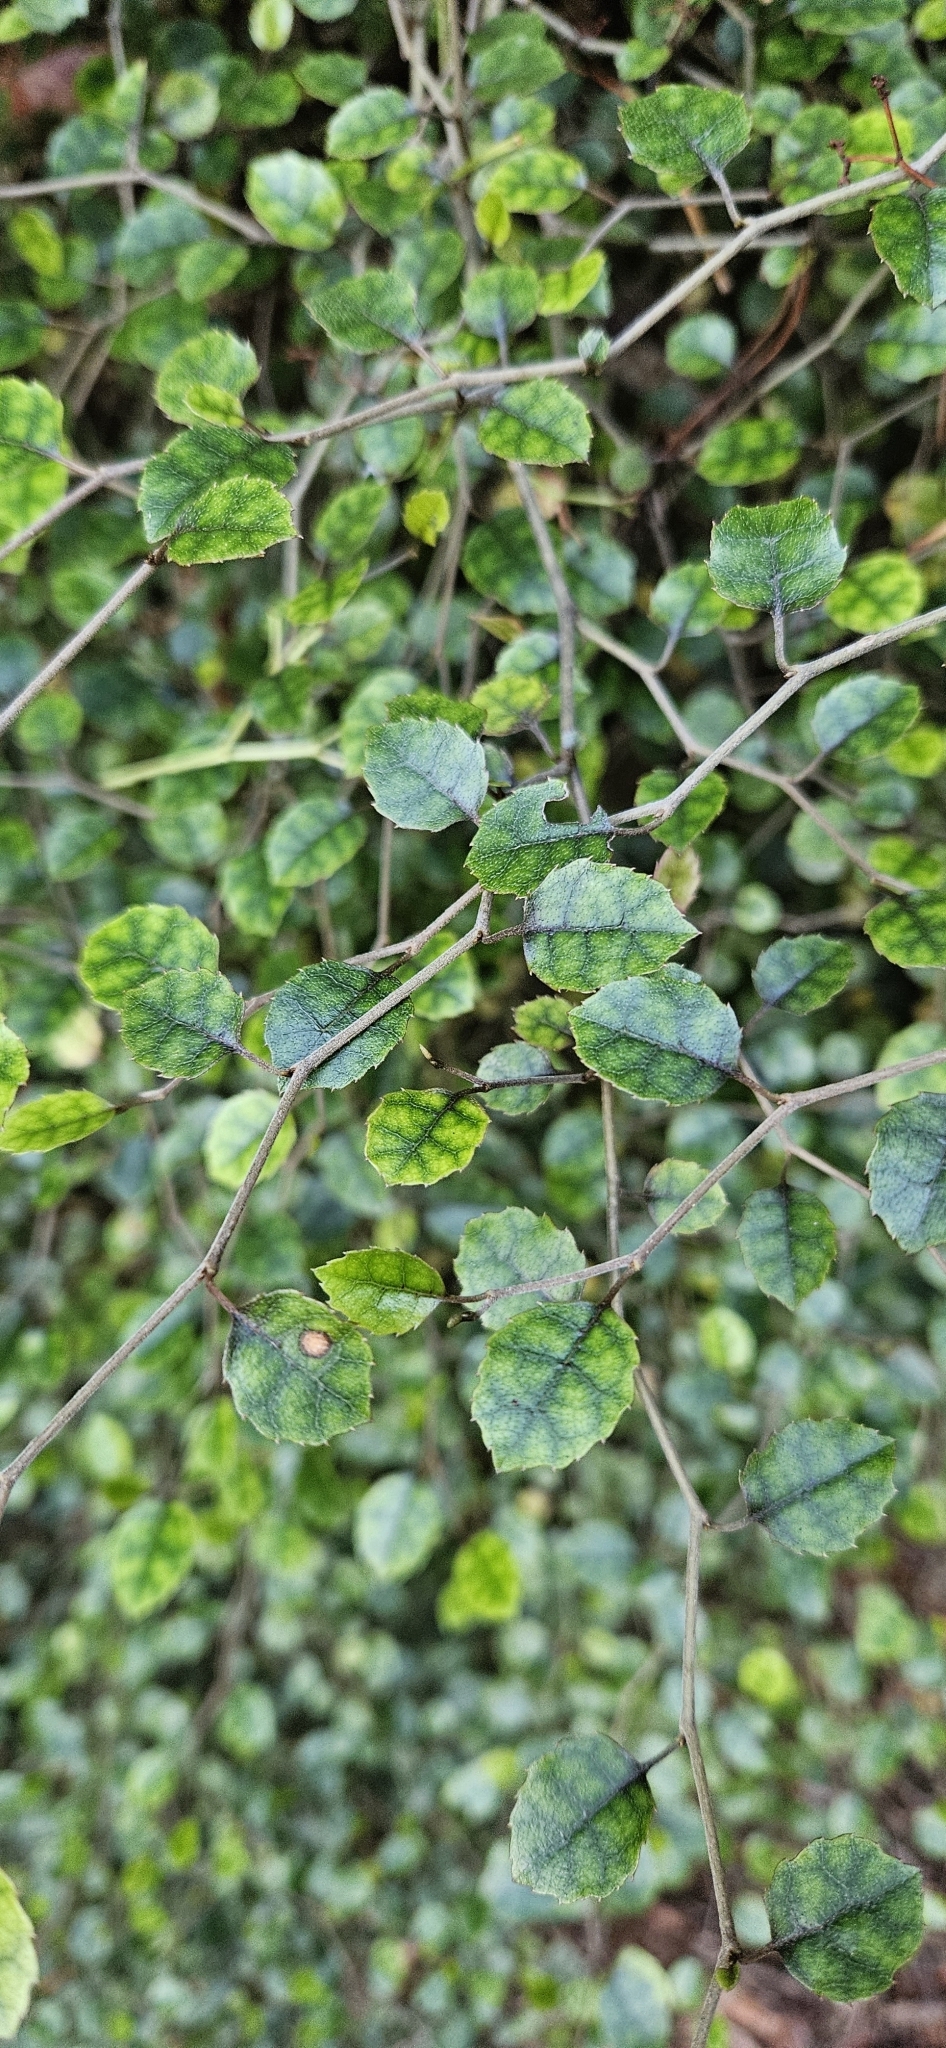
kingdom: Plantae
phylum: Tracheophyta
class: Magnoliopsida
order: Asterales
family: Rousseaceae
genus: Carpodetus
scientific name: Carpodetus serratus
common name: White mapau
